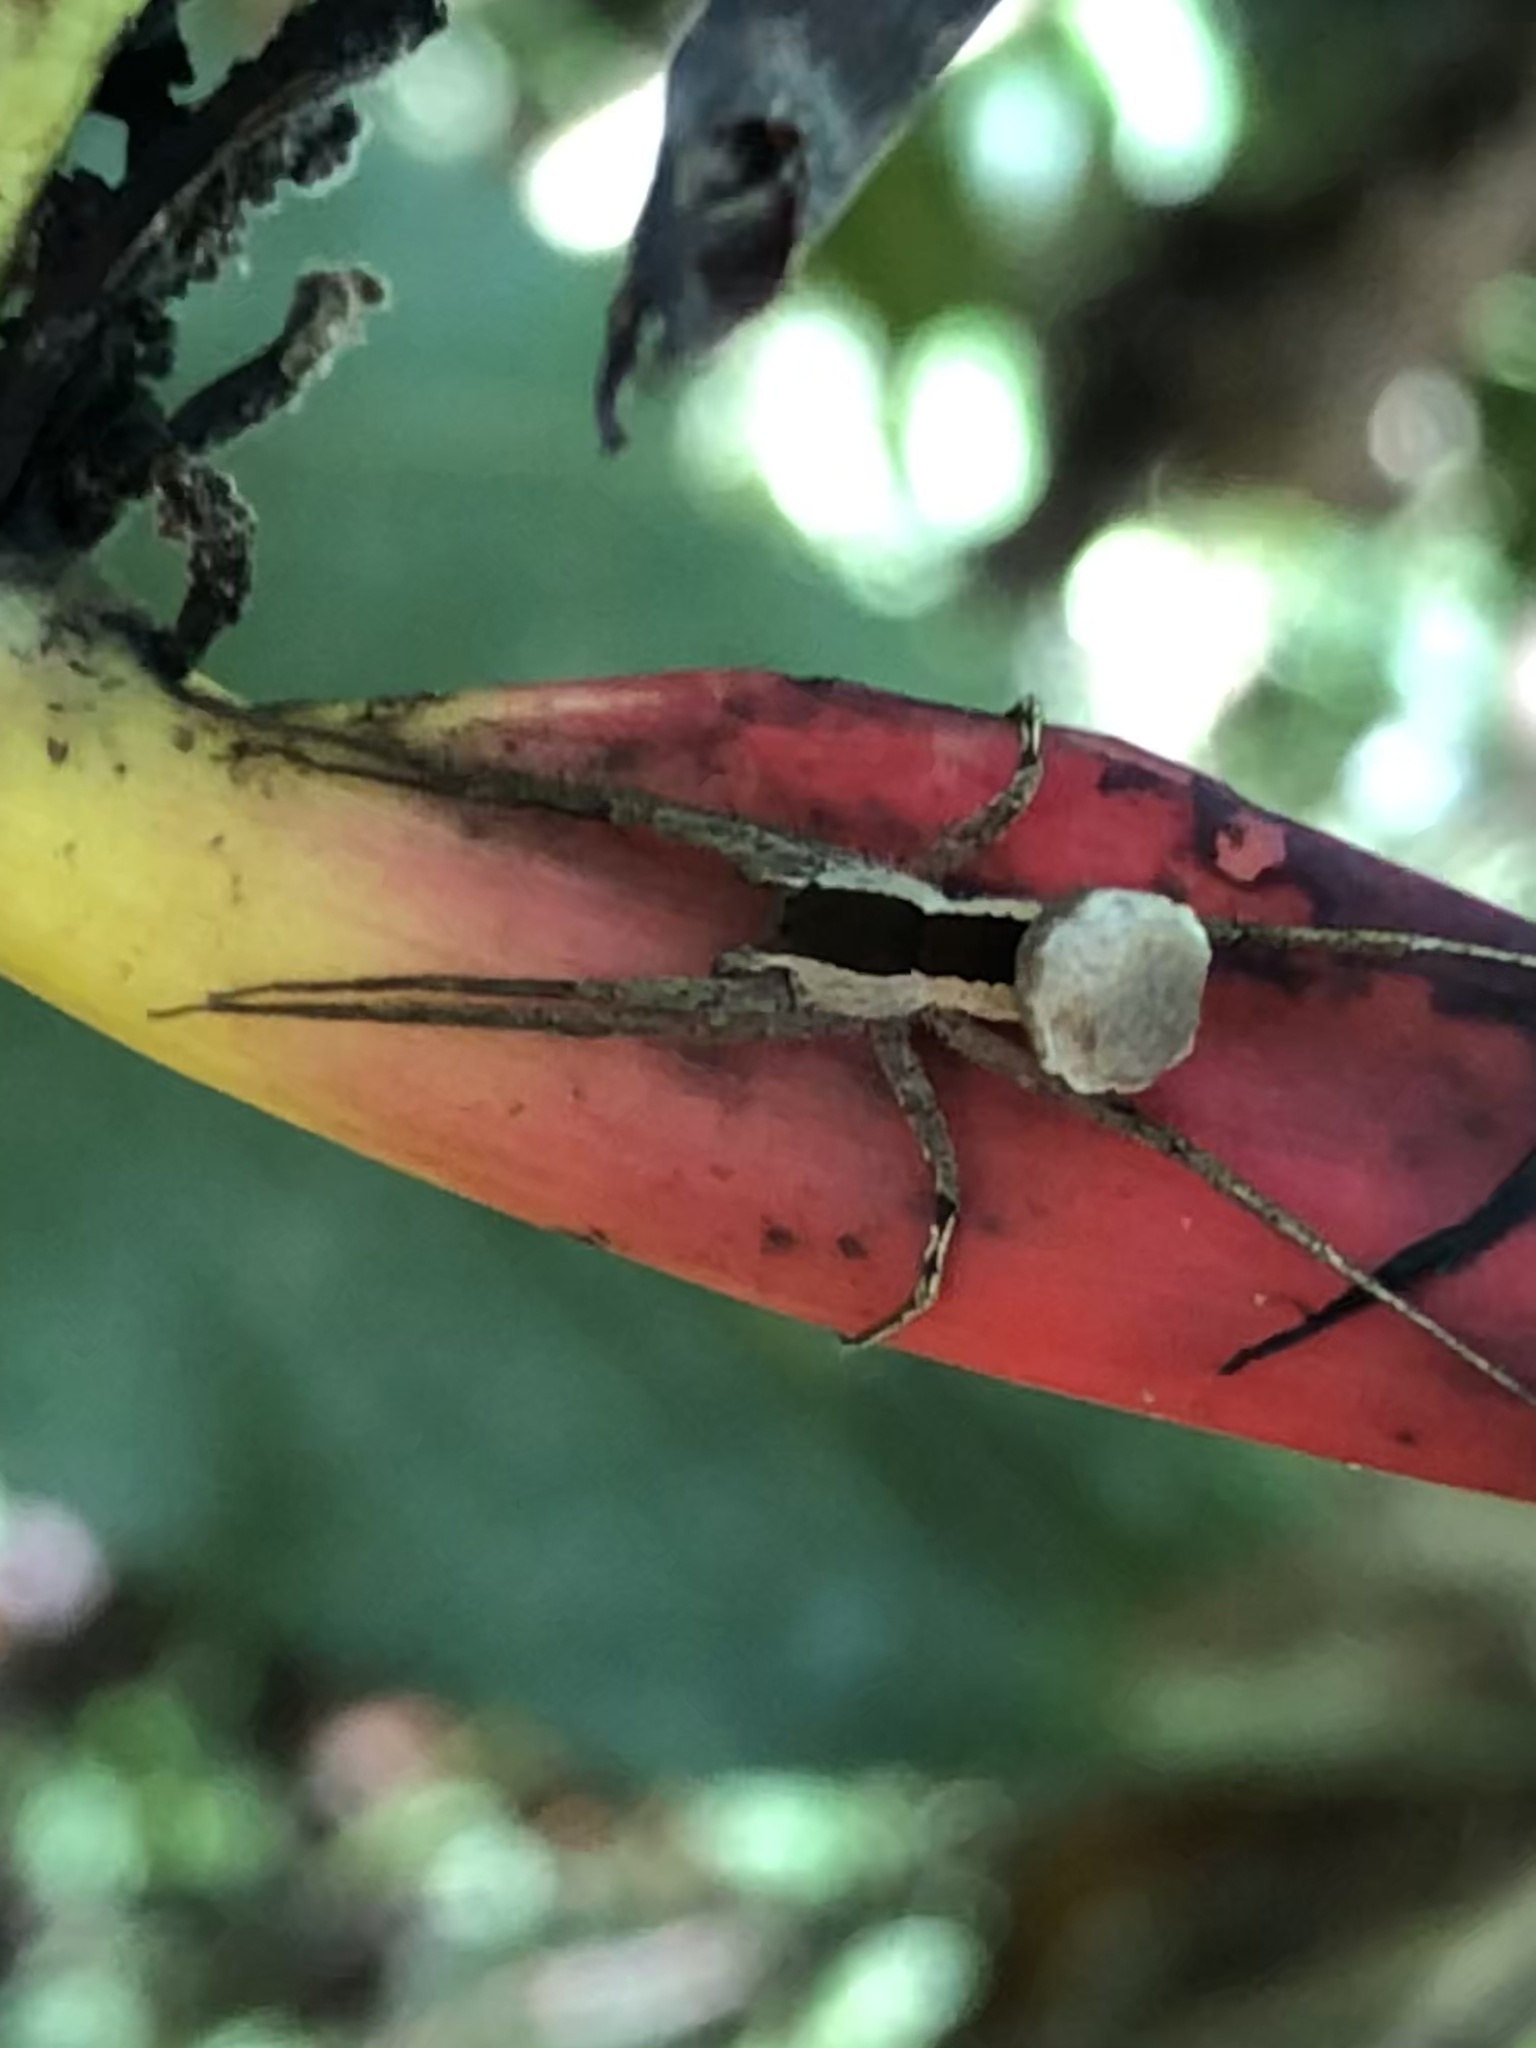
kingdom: Animalia
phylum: Arthropoda
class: Arachnida
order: Araneae
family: Trechaleidae
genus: Dossenus
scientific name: Dossenus marginatus
